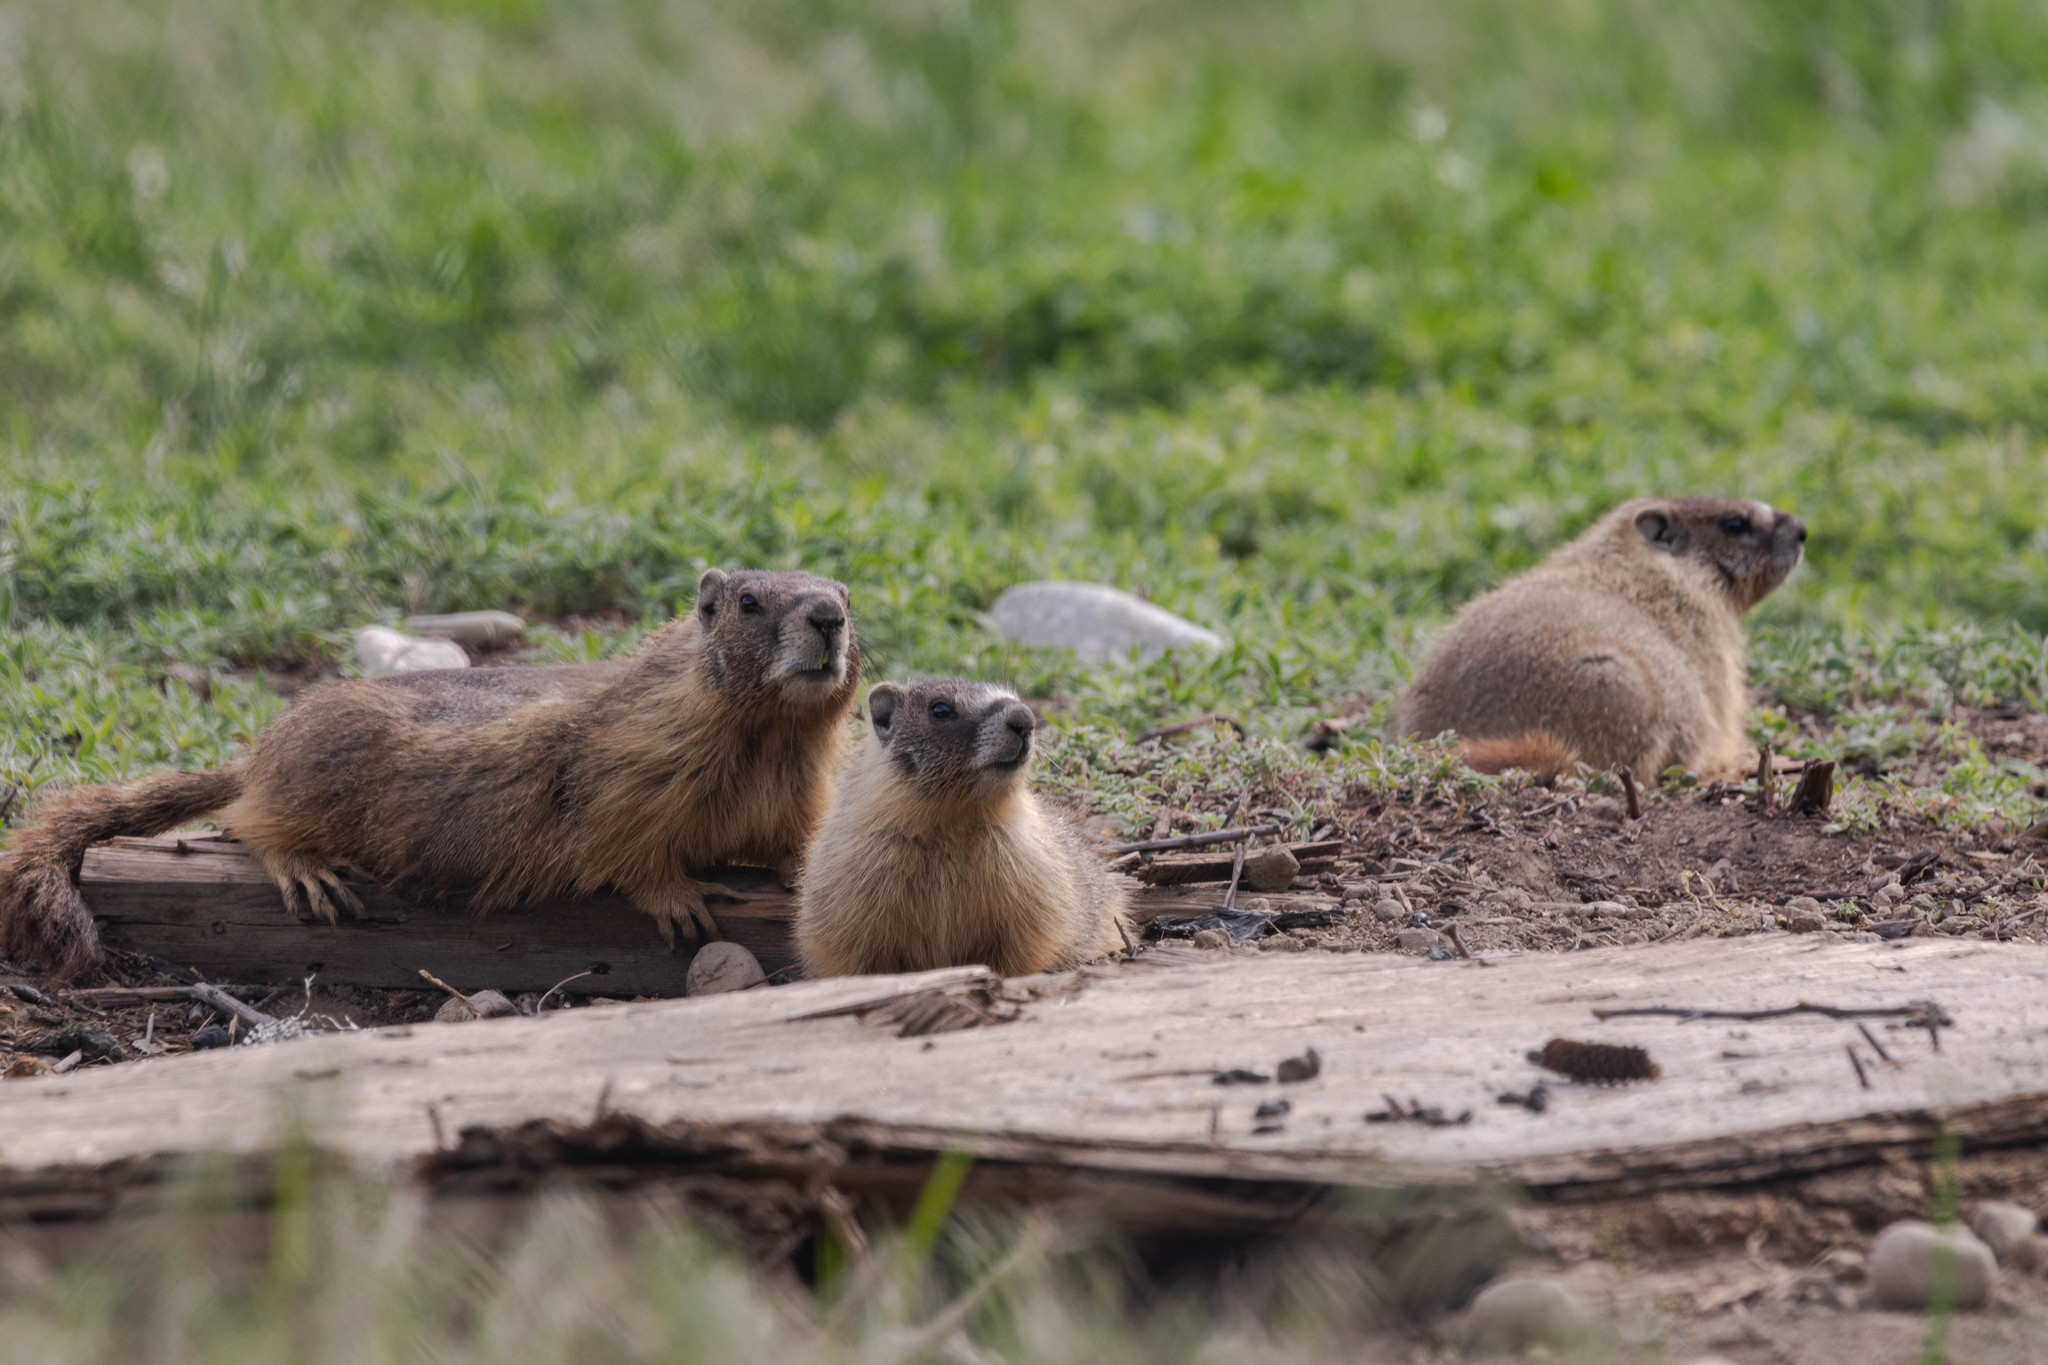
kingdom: Animalia
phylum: Chordata
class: Mammalia
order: Rodentia
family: Sciuridae
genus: Marmota
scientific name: Marmota flaviventris
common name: Yellow-bellied marmot
